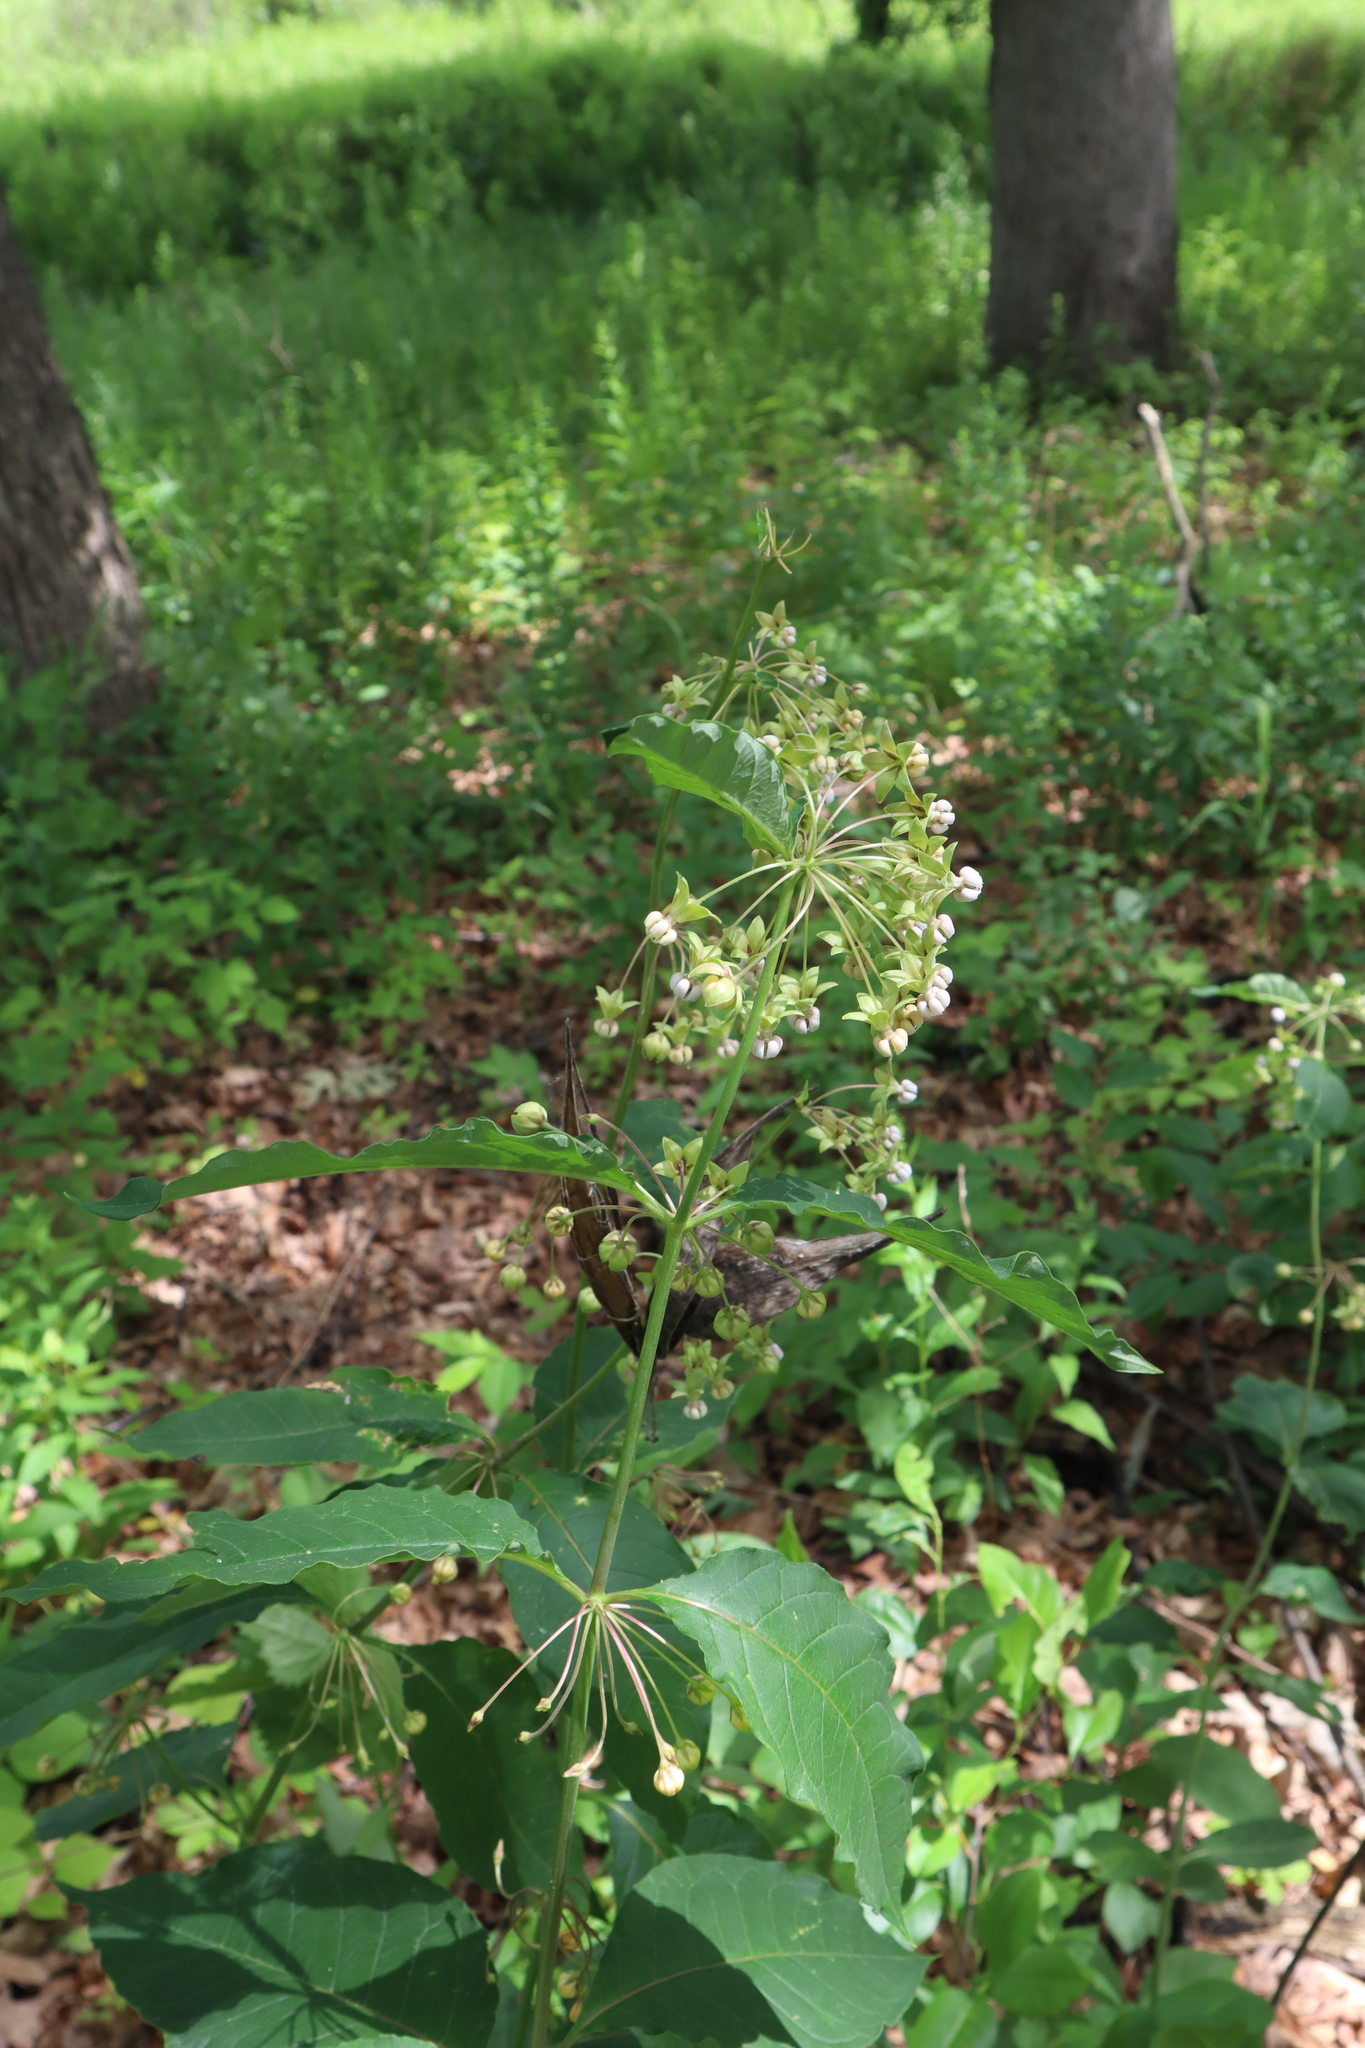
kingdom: Plantae
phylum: Tracheophyta
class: Magnoliopsida
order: Gentianales
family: Apocynaceae
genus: Asclepias
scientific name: Asclepias exaltata
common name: Poke milkweed
